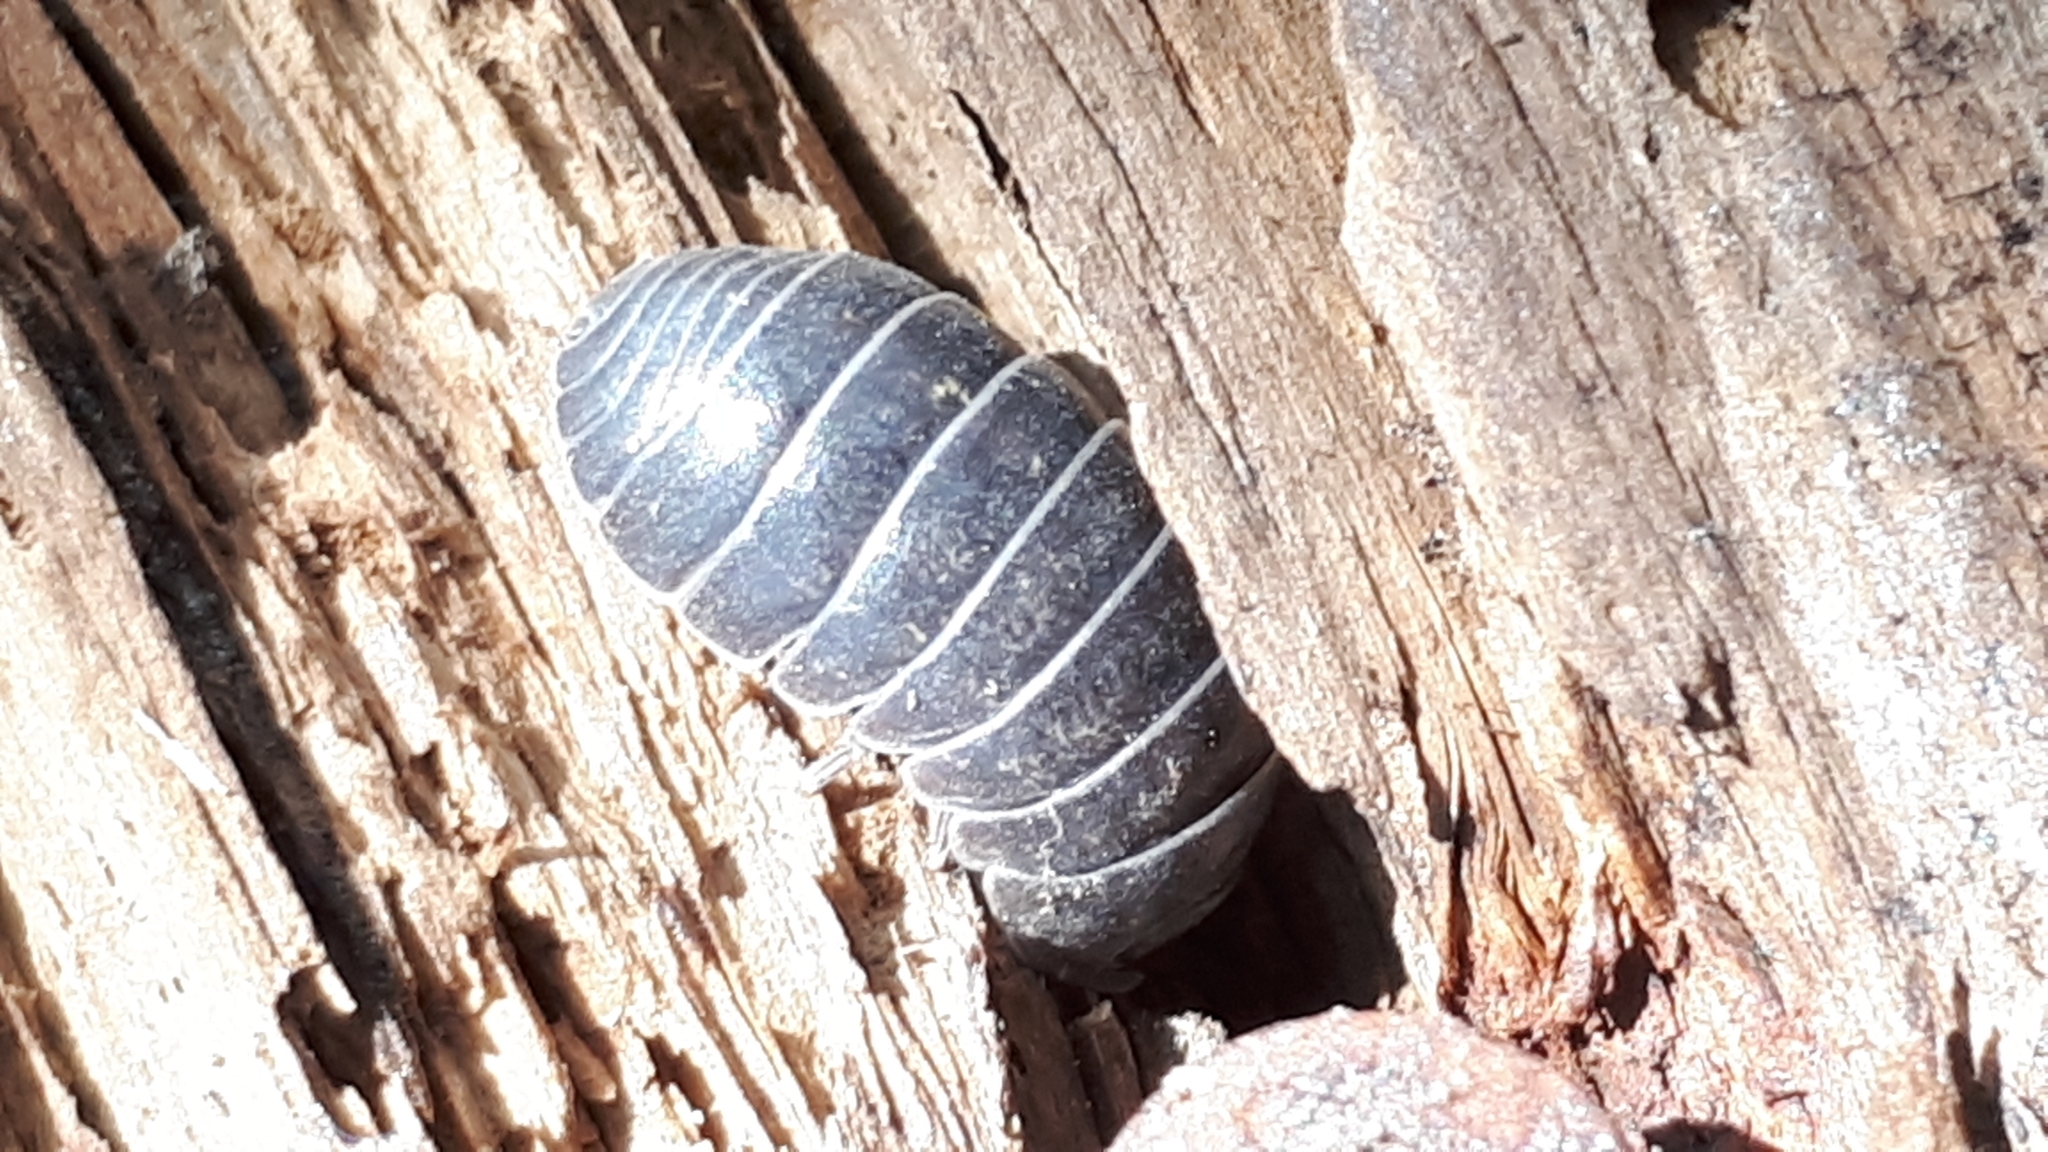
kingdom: Animalia
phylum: Arthropoda
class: Malacostraca
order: Isopoda
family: Armadillidiidae
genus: Armadillidium
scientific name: Armadillidium vulgare
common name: Common pill woodlouse
